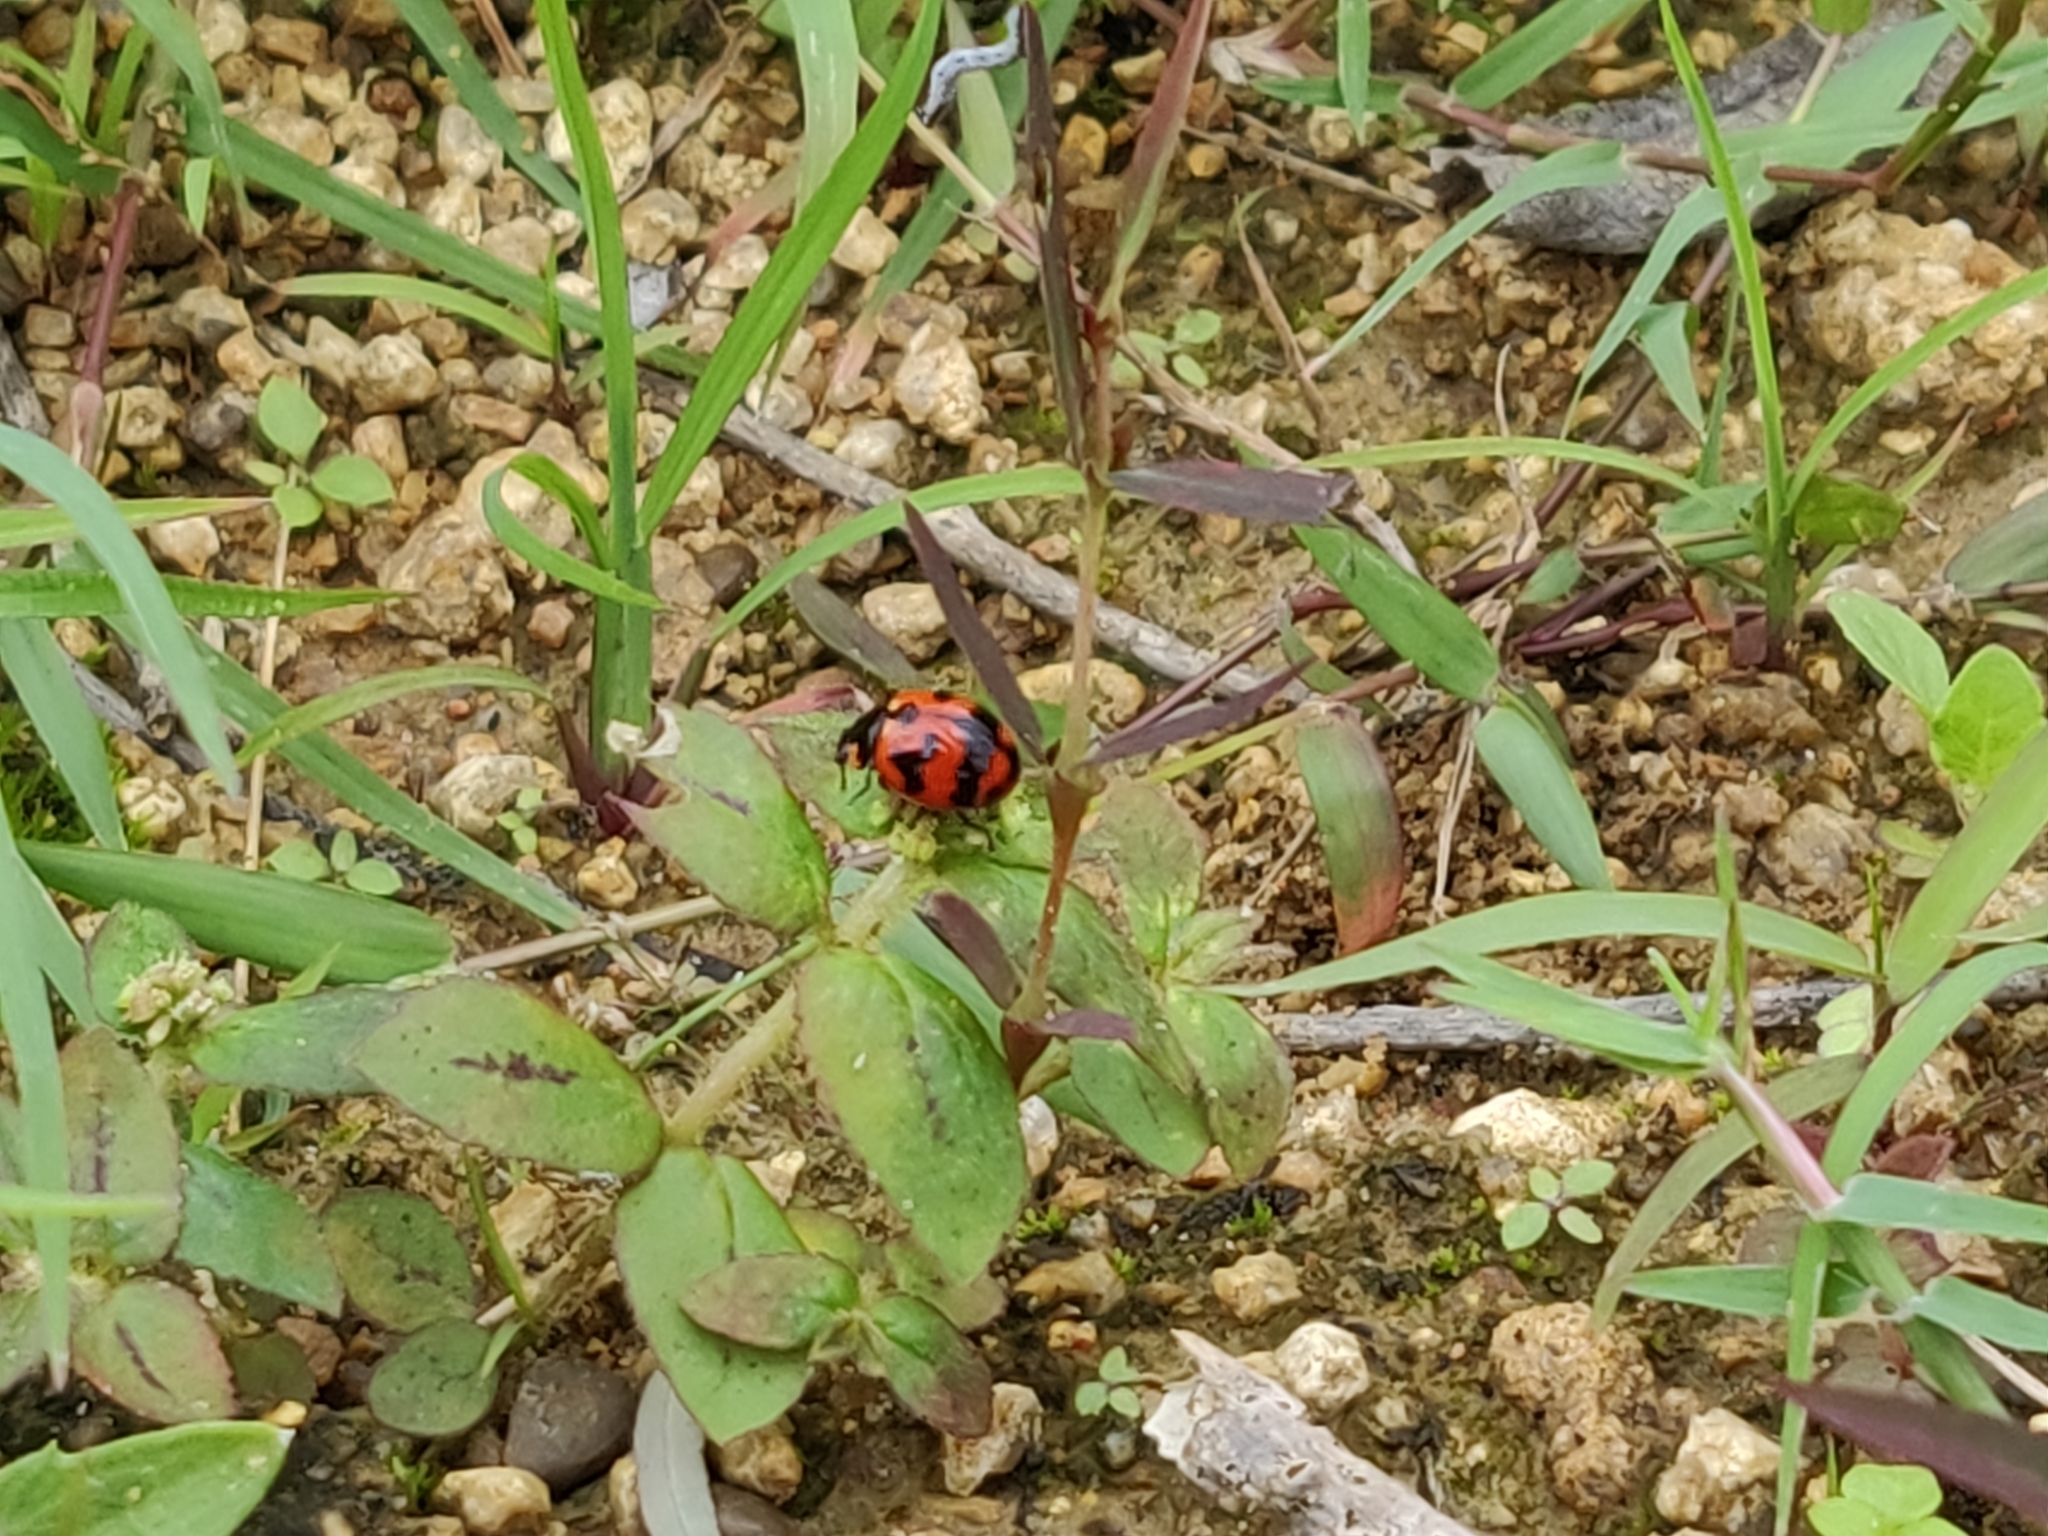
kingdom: Animalia
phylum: Arthropoda
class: Insecta
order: Coleoptera
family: Coccinellidae
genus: Coccinella
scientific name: Coccinella transversalis
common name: Transverse lady beetle
